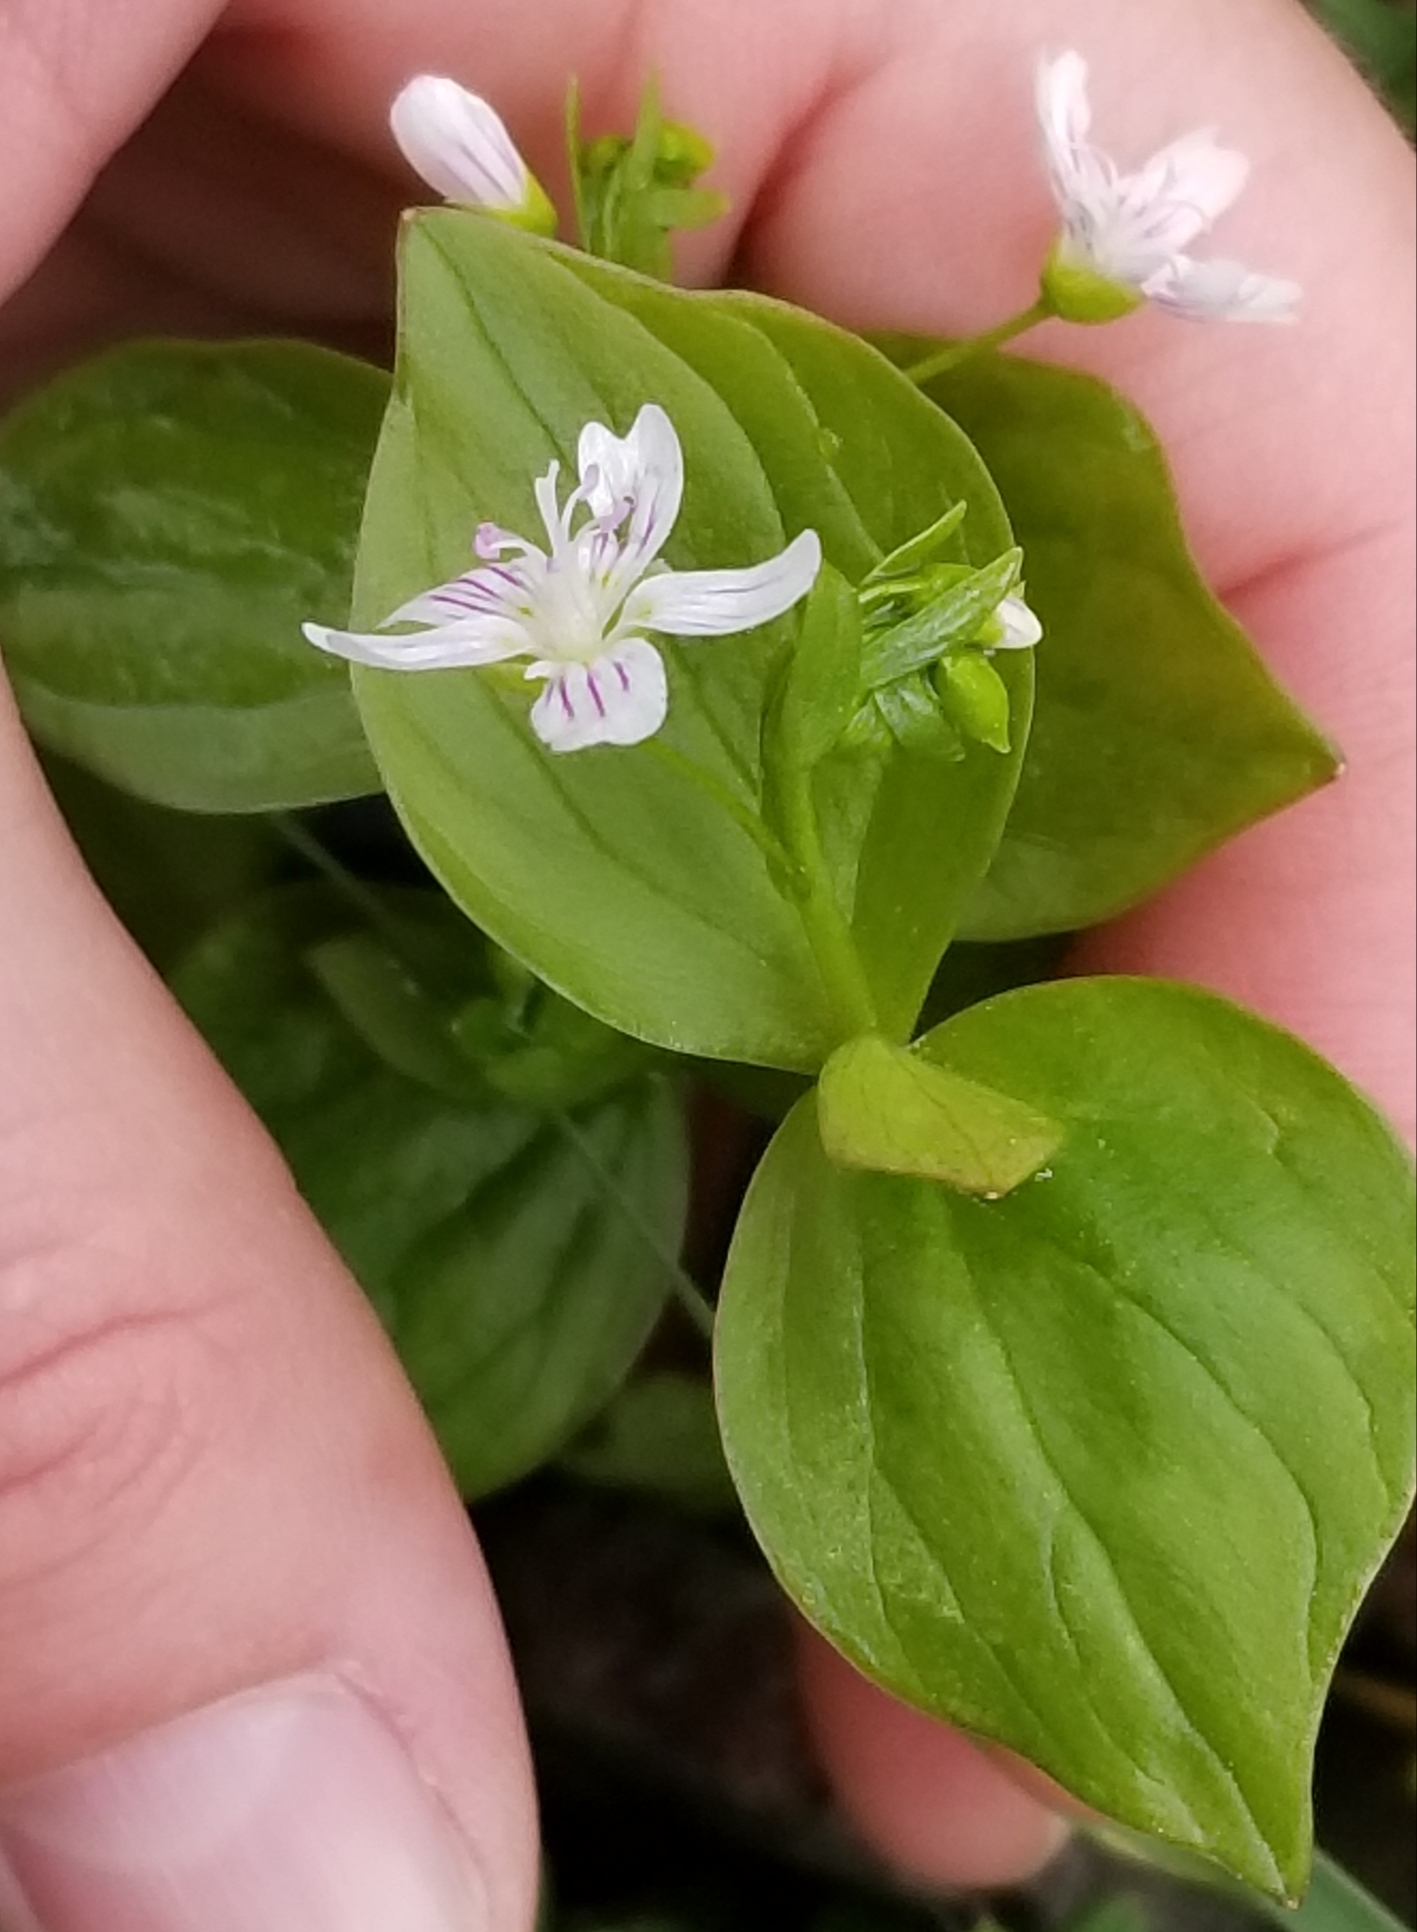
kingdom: Plantae
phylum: Tracheophyta
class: Magnoliopsida
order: Caryophyllales
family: Montiaceae
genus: Claytonia
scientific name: Claytonia sibirica
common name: Pink purslane
